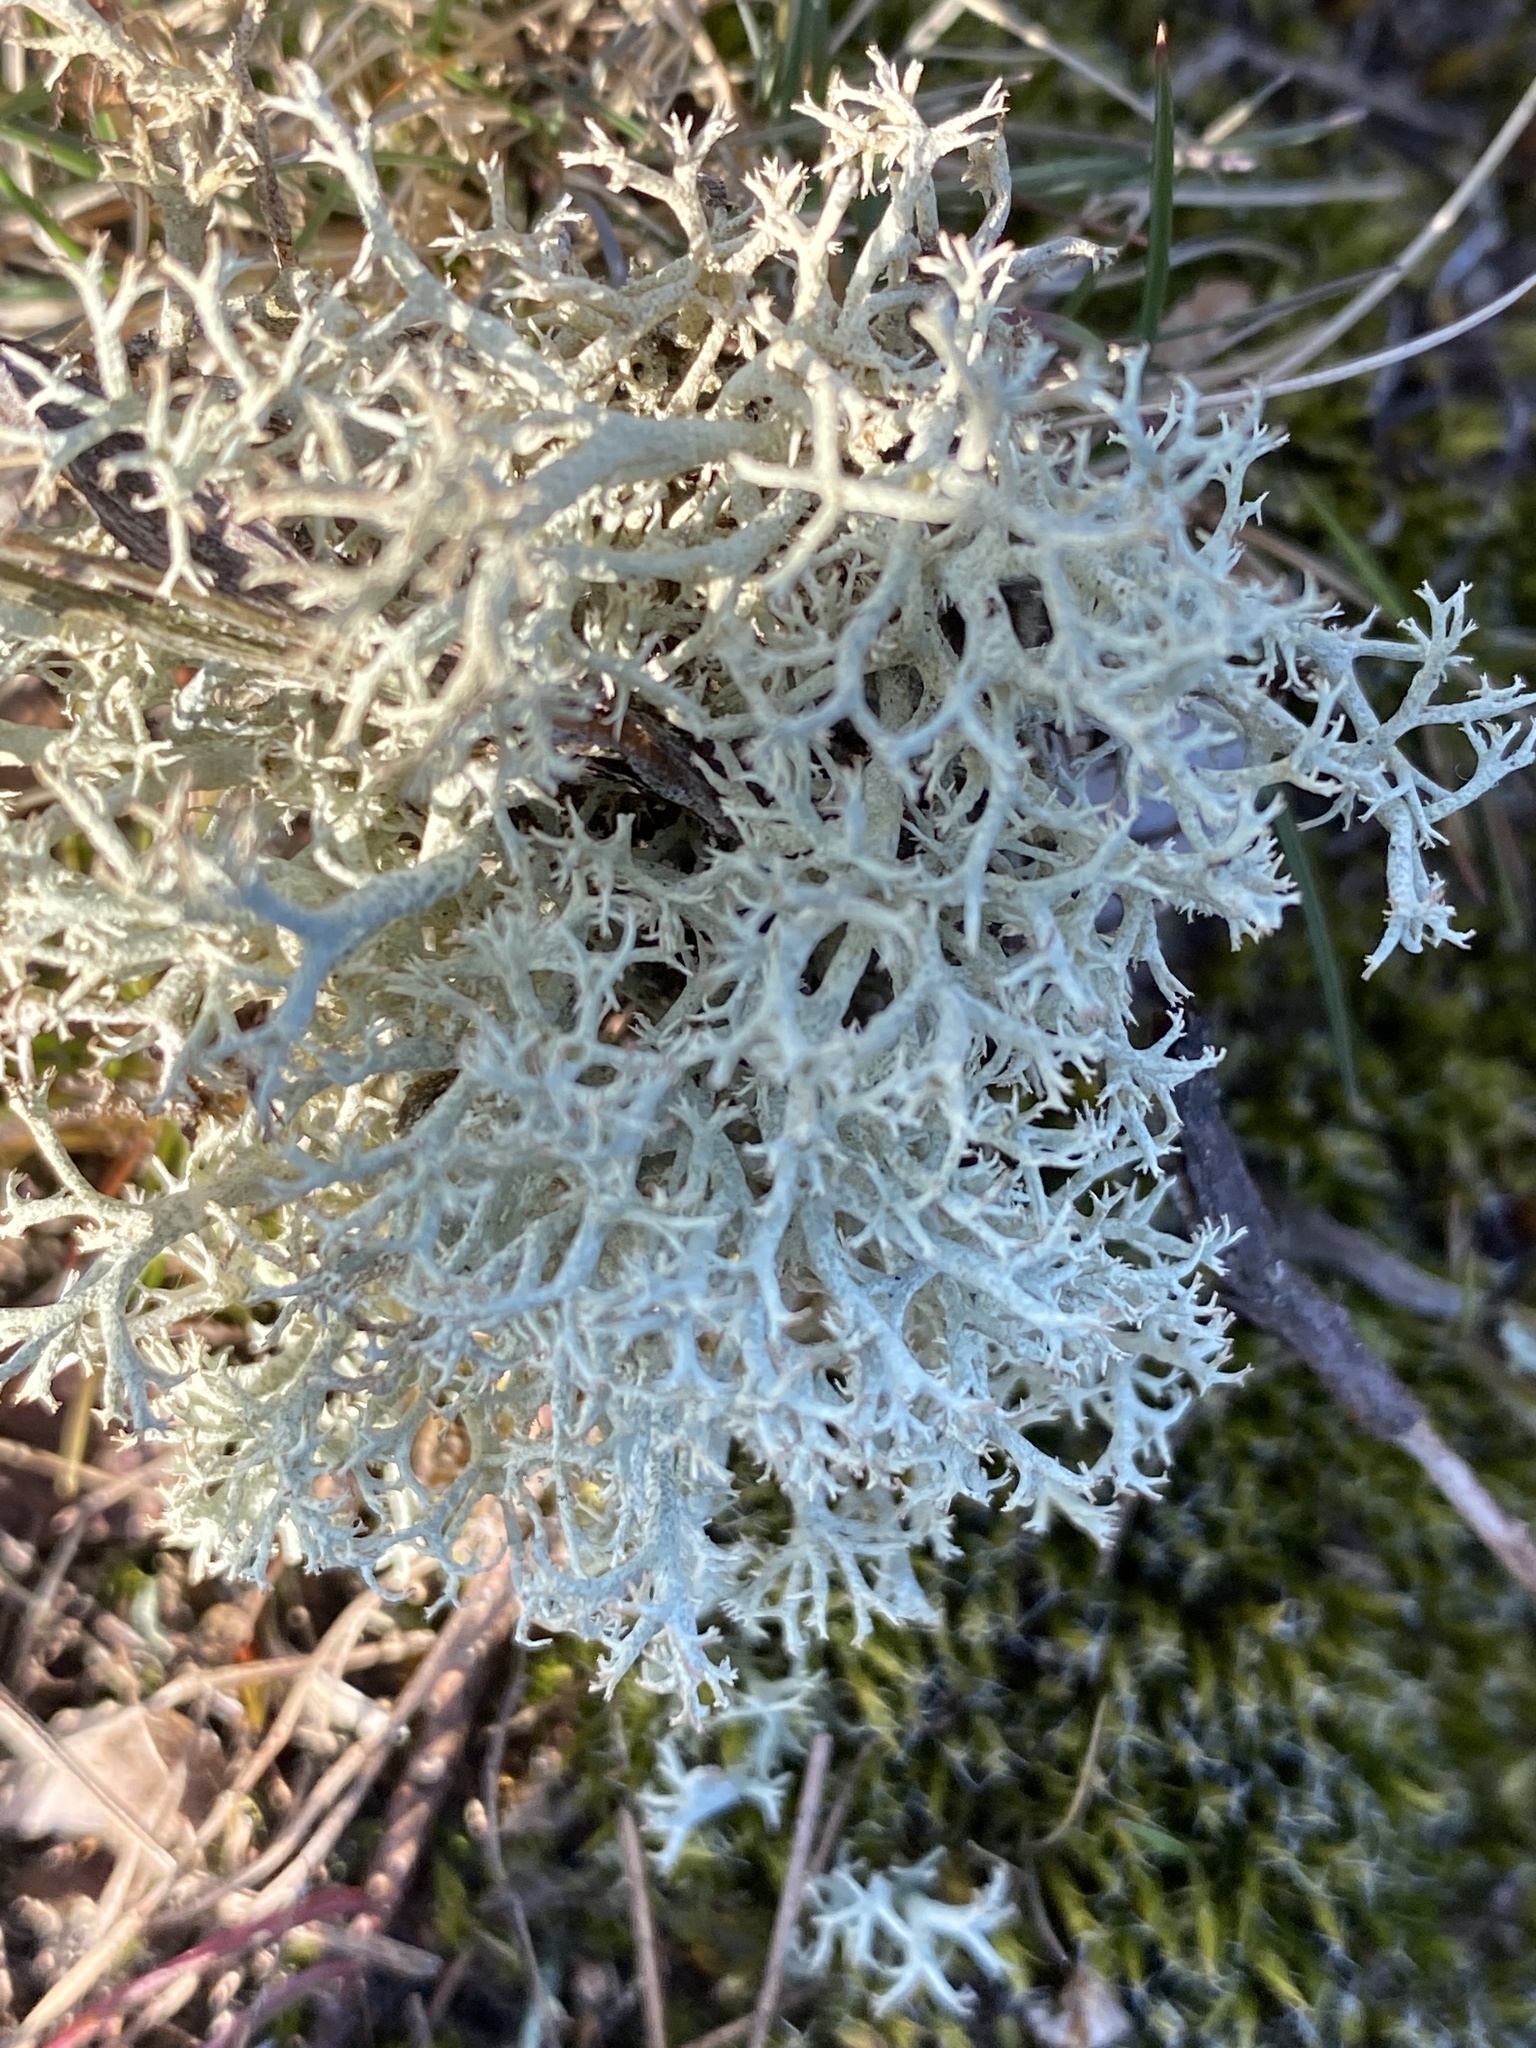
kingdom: Fungi
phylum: Ascomycota
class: Lecanoromycetes
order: Lecanorales
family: Cladoniaceae
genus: Cladonia
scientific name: Cladonia portentosa
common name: Reindeer lichen
